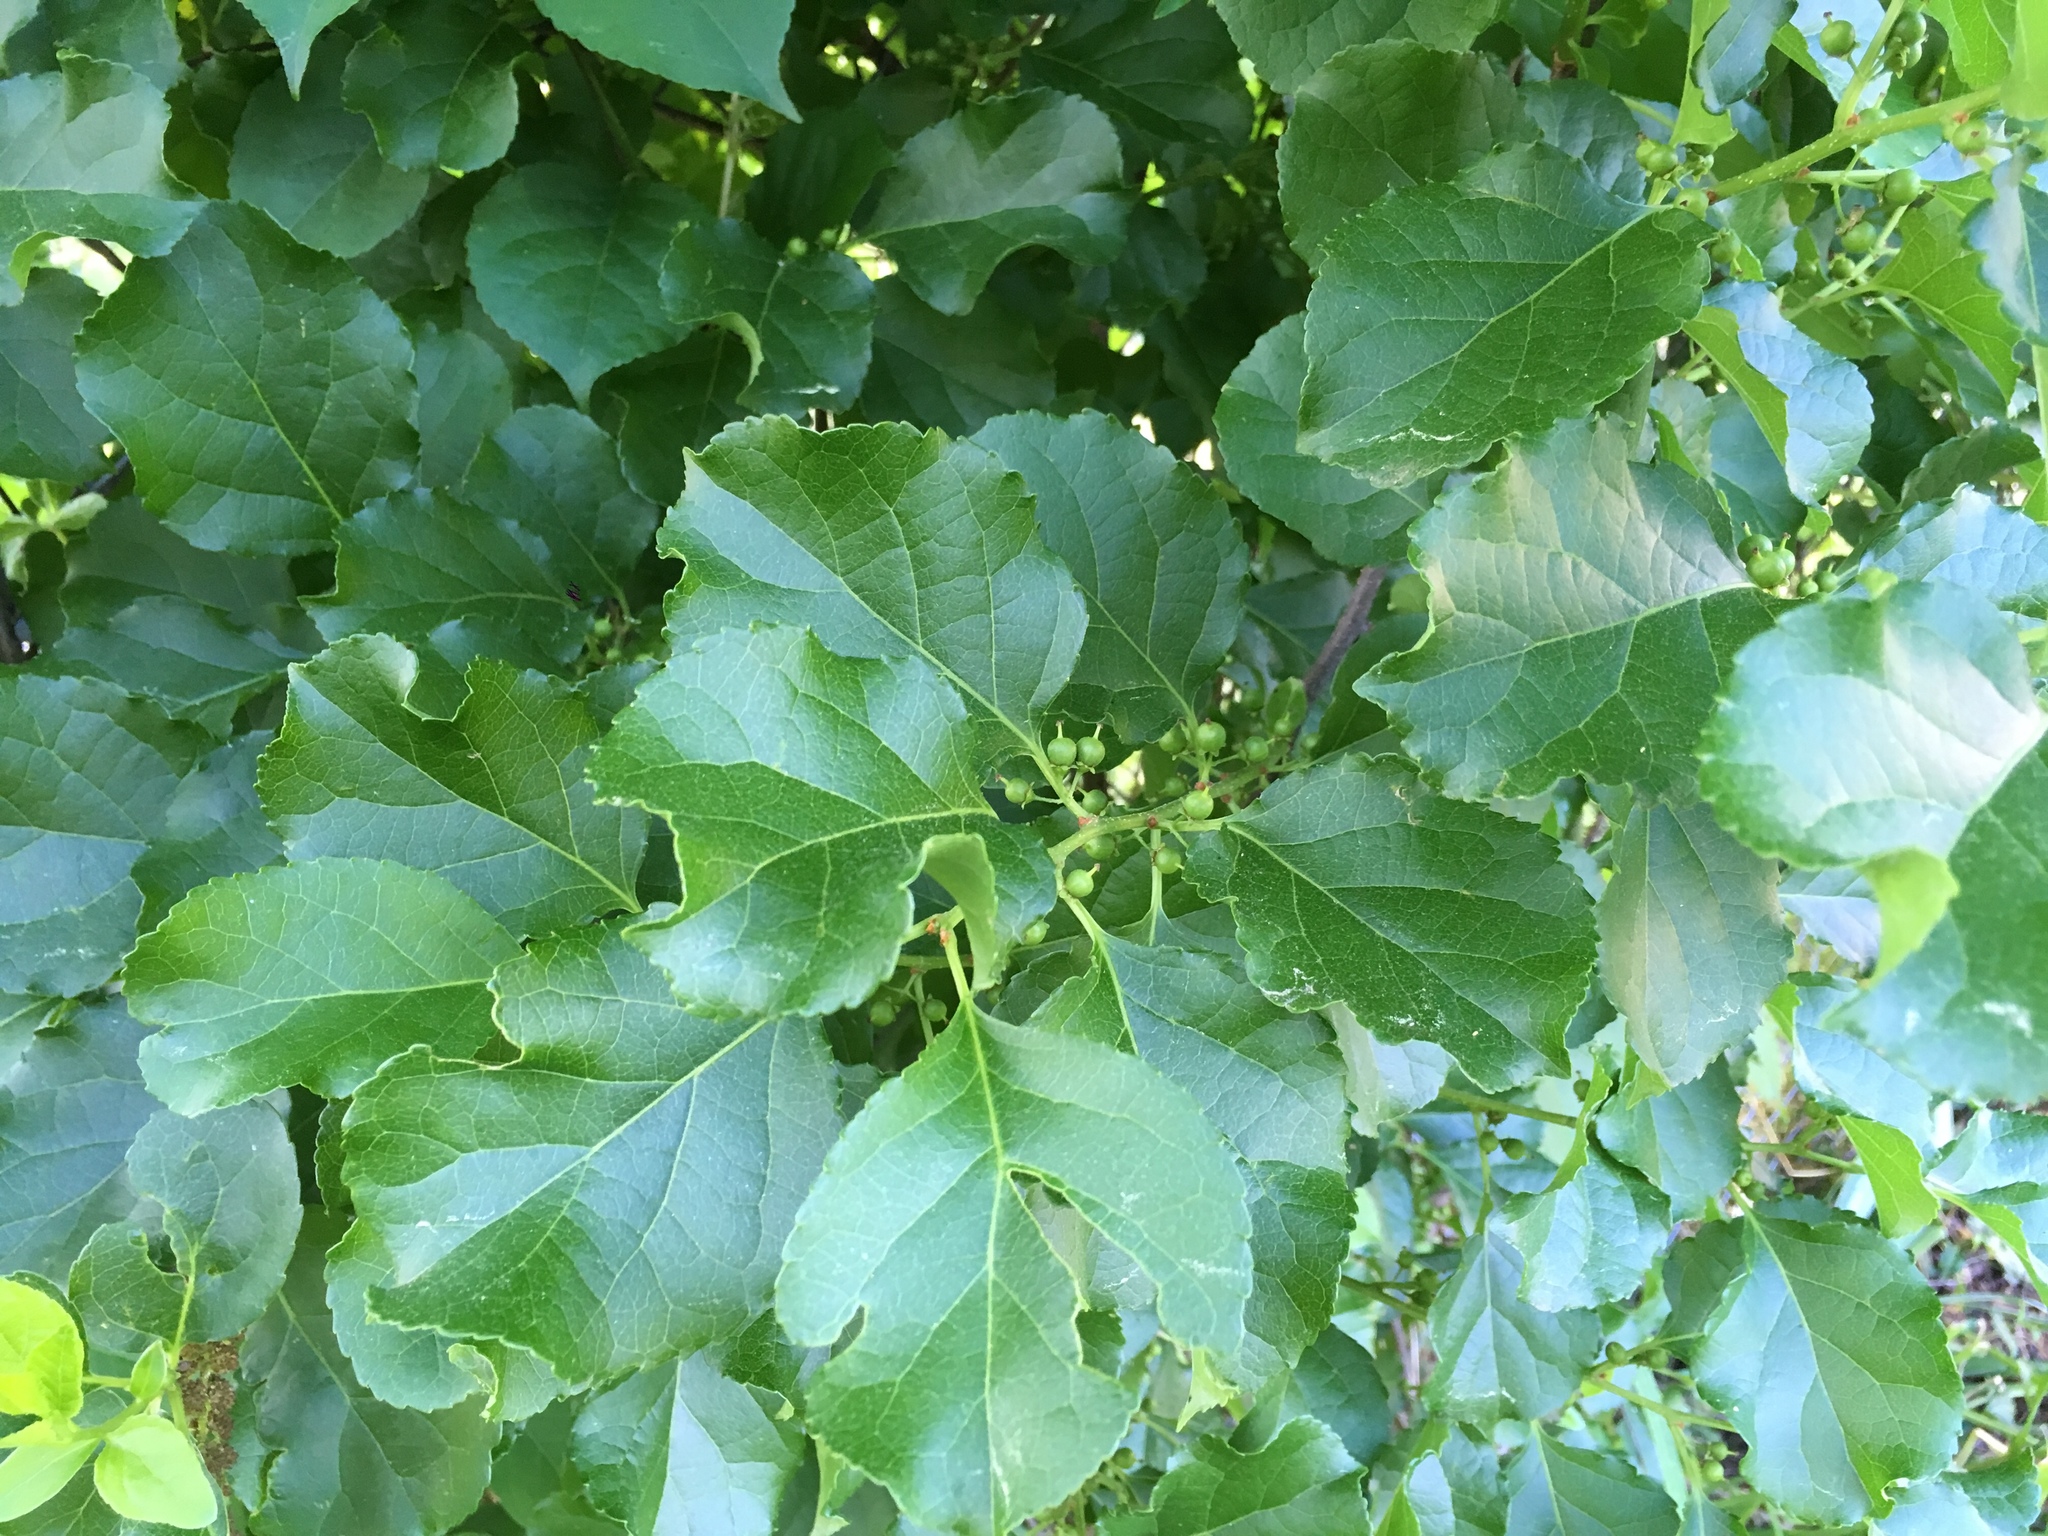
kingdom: Plantae
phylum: Tracheophyta
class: Magnoliopsida
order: Celastrales
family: Celastraceae
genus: Celastrus
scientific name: Celastrus orbiculatus
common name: Oriental bittersweet
